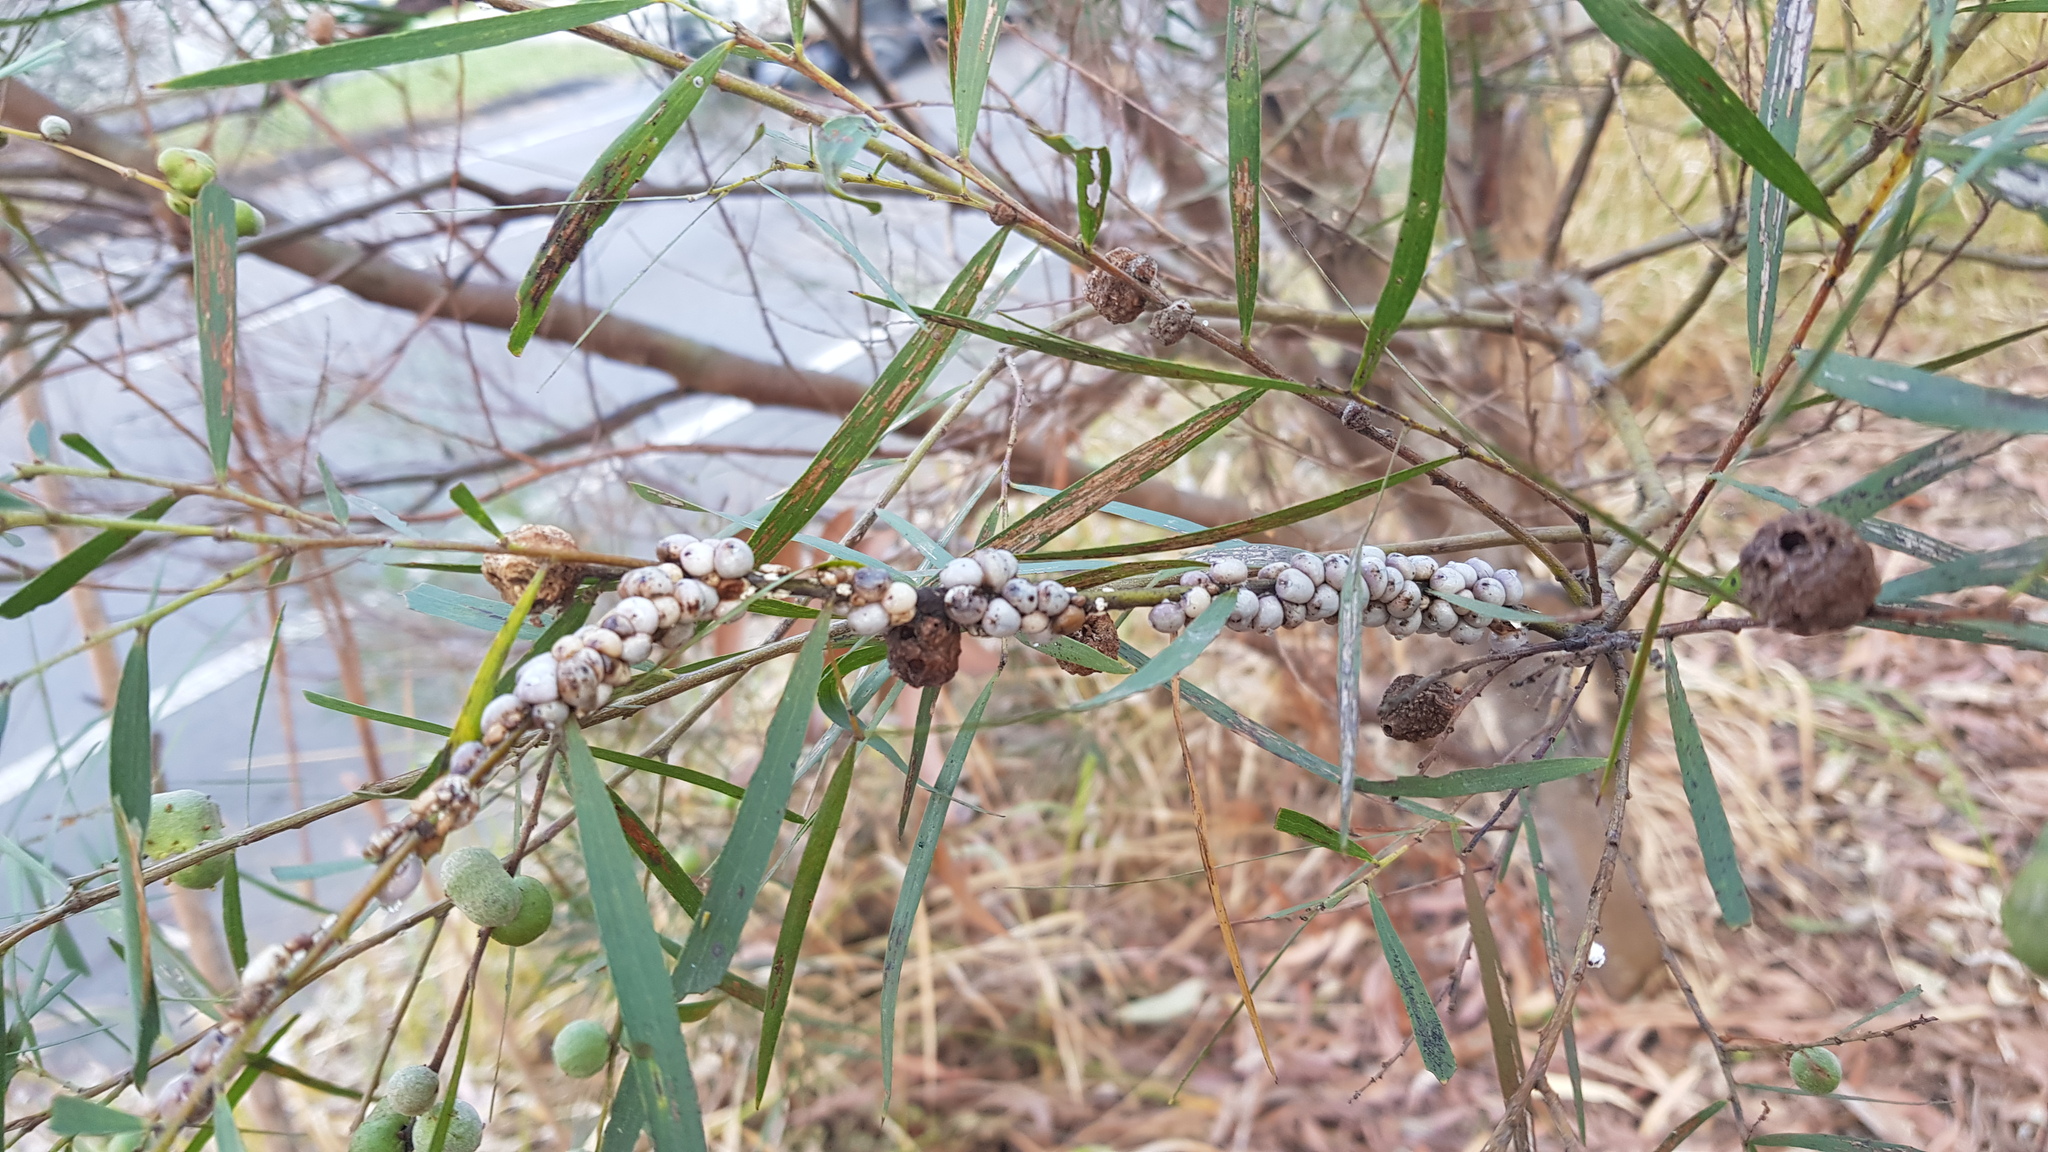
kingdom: Animalia
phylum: Arthropoda
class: Insecta
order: Hemiptera
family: Coccidae
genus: Cryptes
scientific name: Cryptes baccatus
